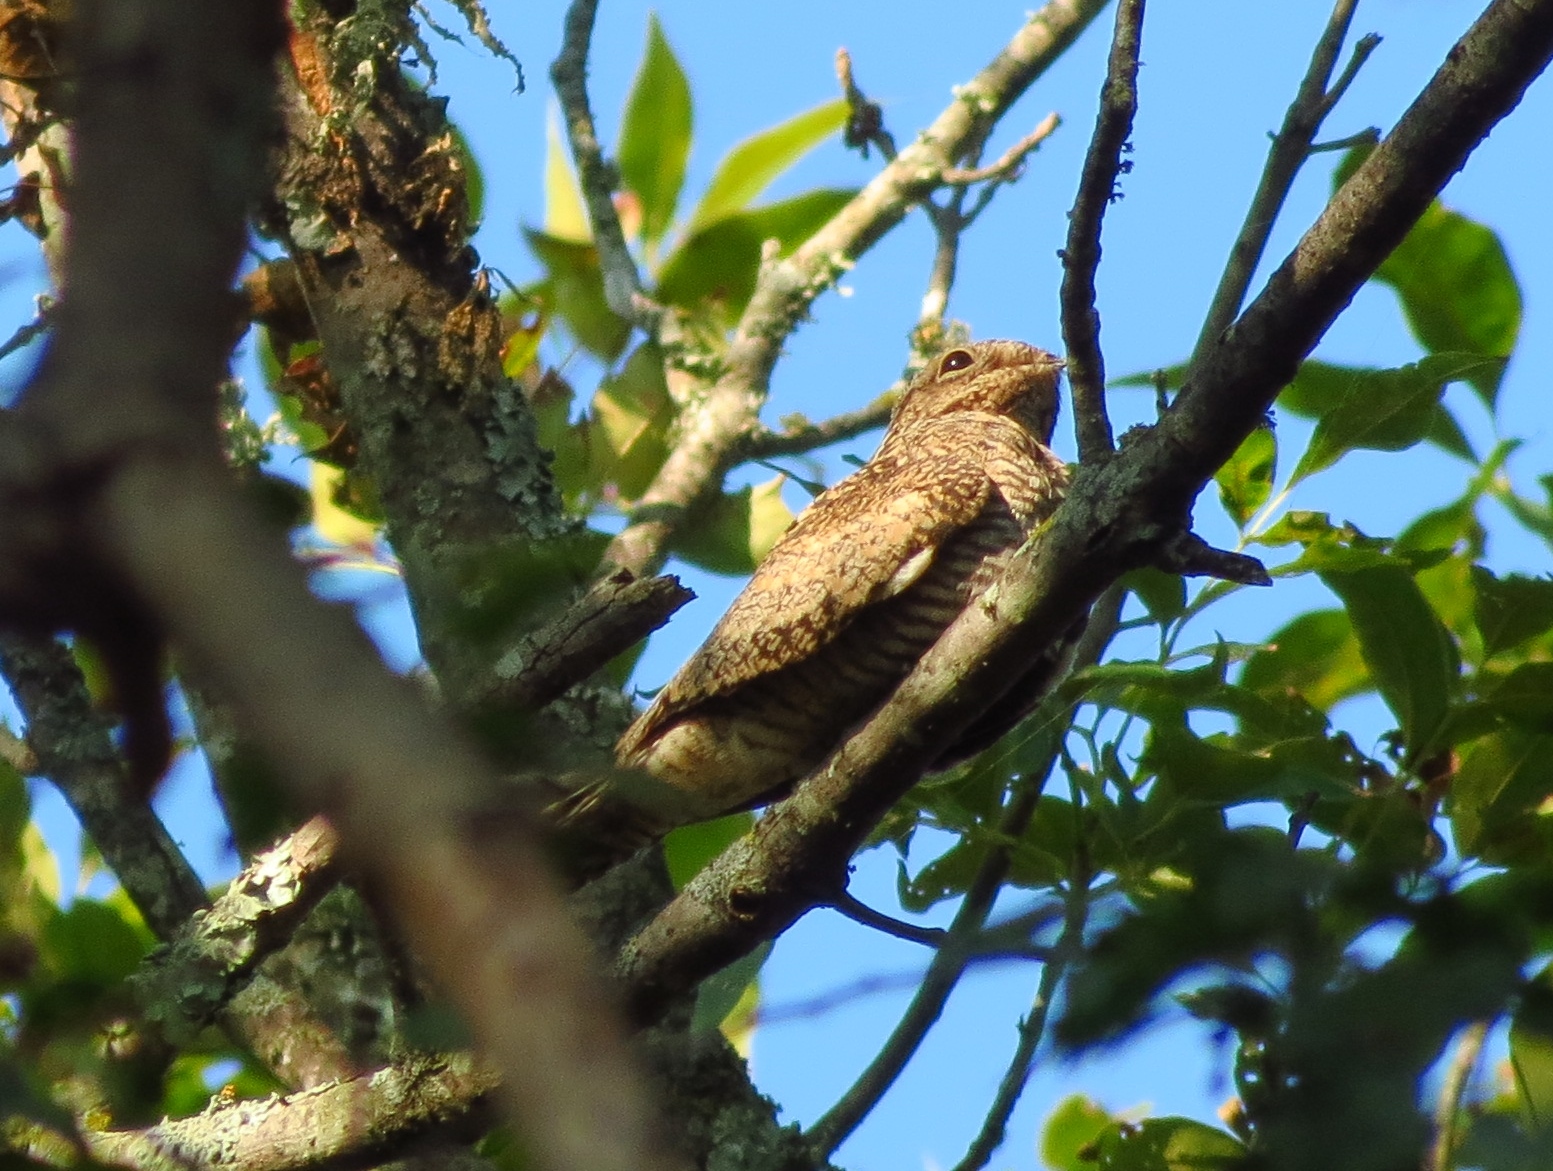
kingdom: Animalia
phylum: Chordata
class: Aves
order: Caprimulgiformes
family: Caprimulgidae
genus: Chordeiles
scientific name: Chordeiles minor
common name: Common nighthawk
